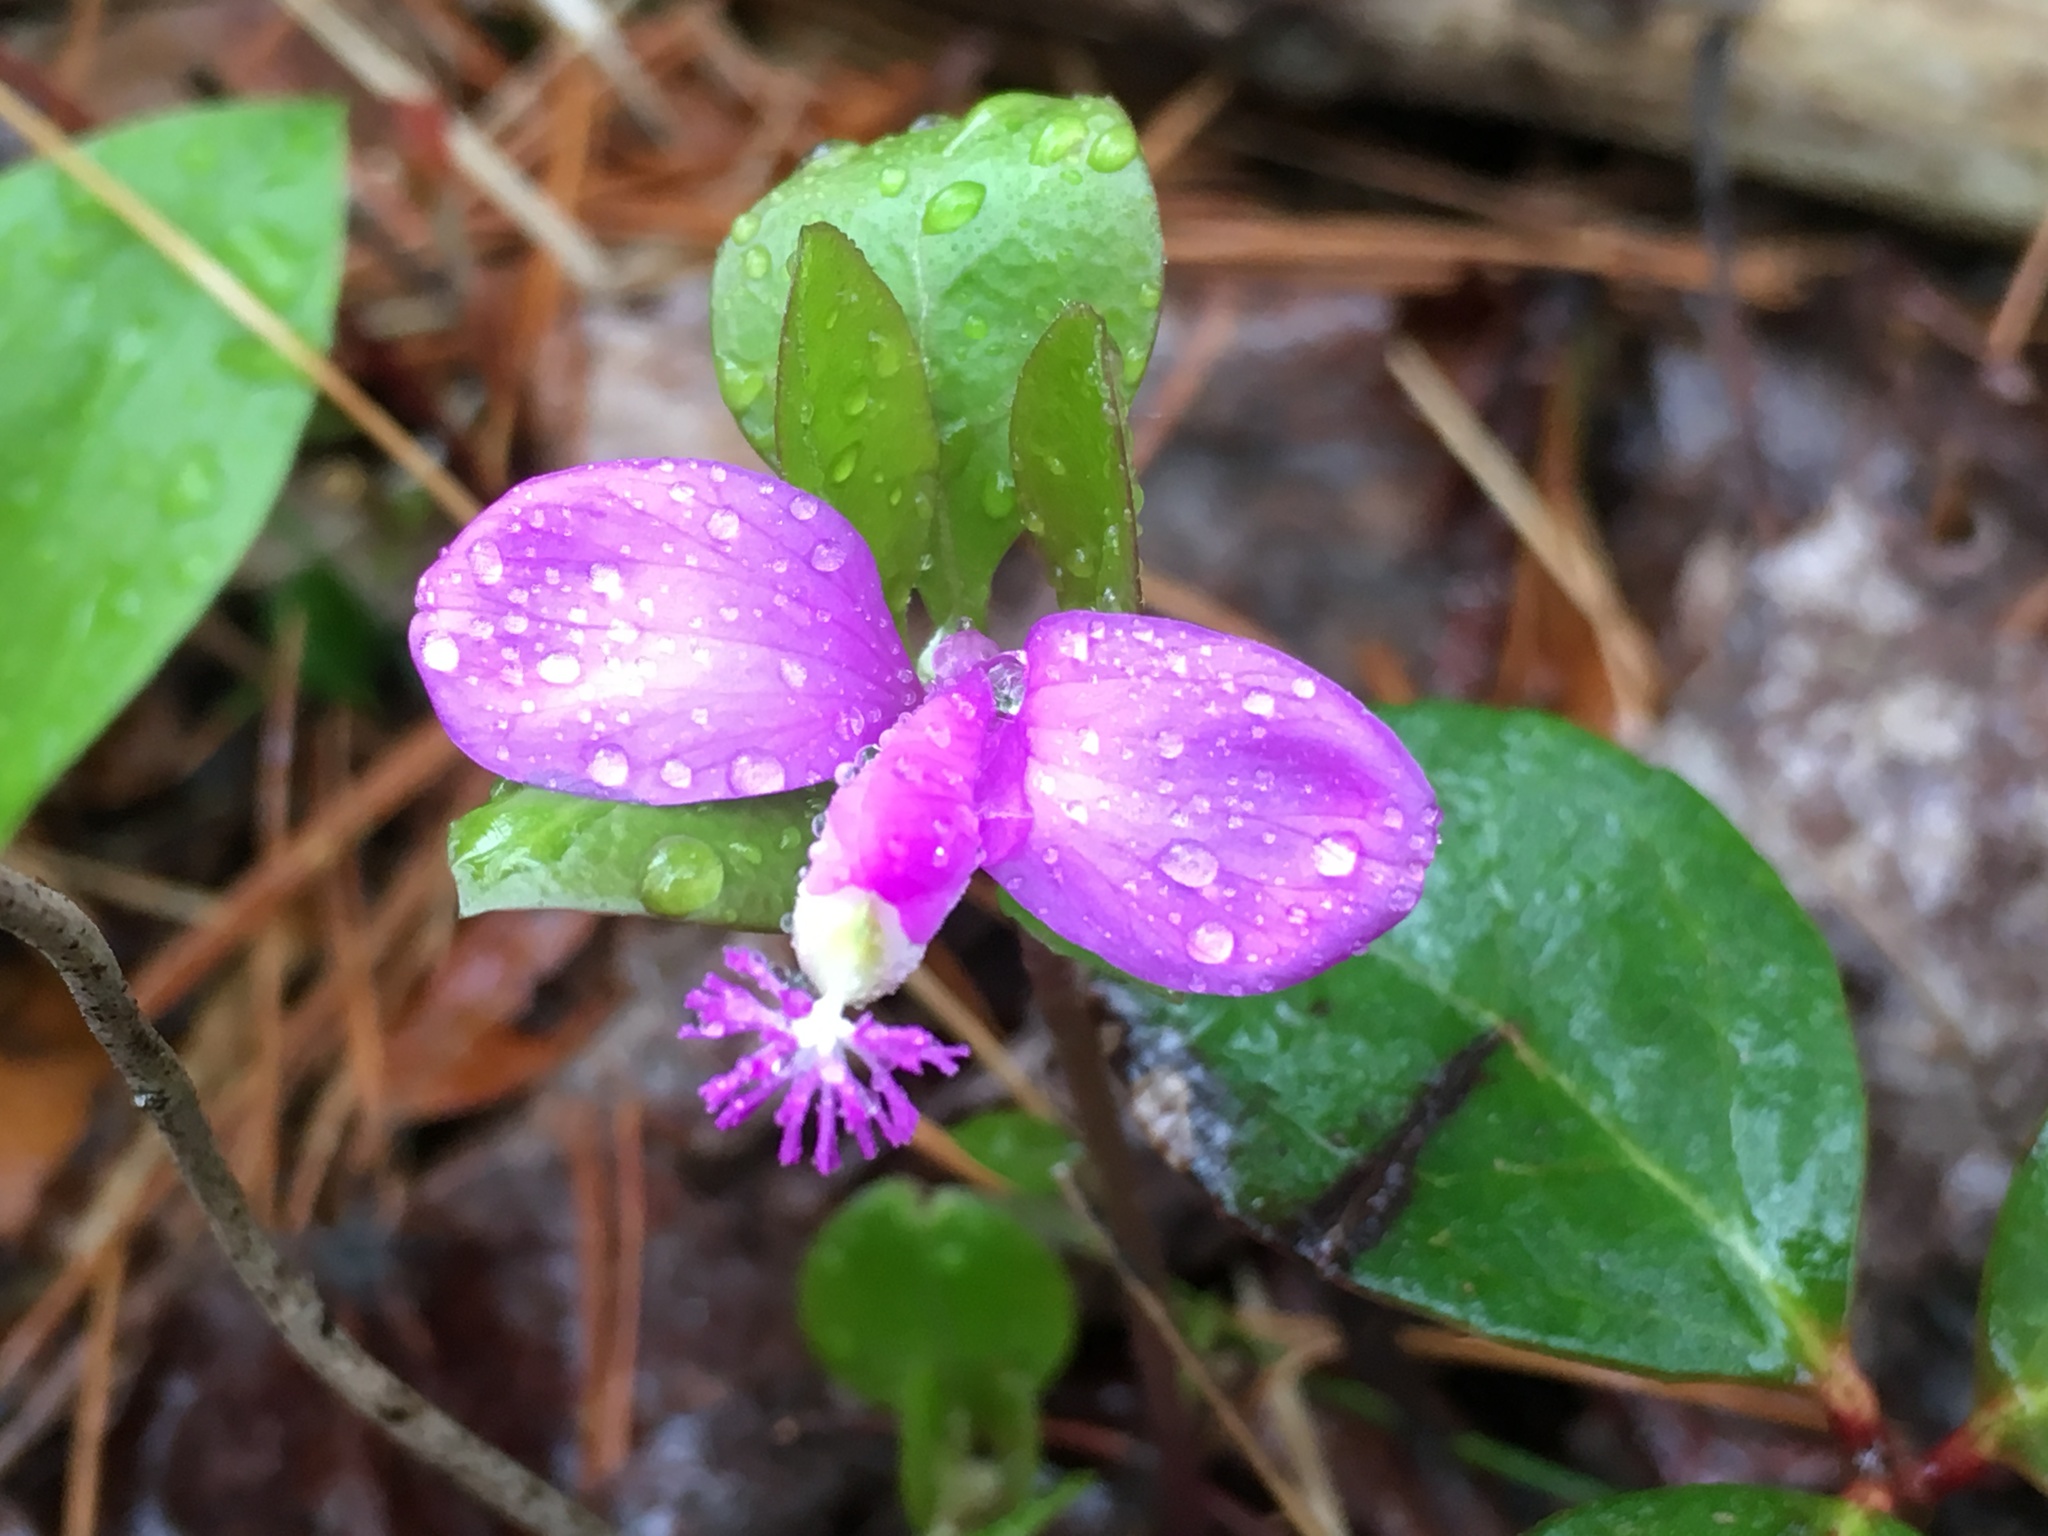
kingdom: Plantae
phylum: Tracheophyta
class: Magnoliopsida
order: Fabales
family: Polygalaceae
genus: Polygaloides
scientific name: Polygaloides paucifolia
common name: Bird-on-the-wing
